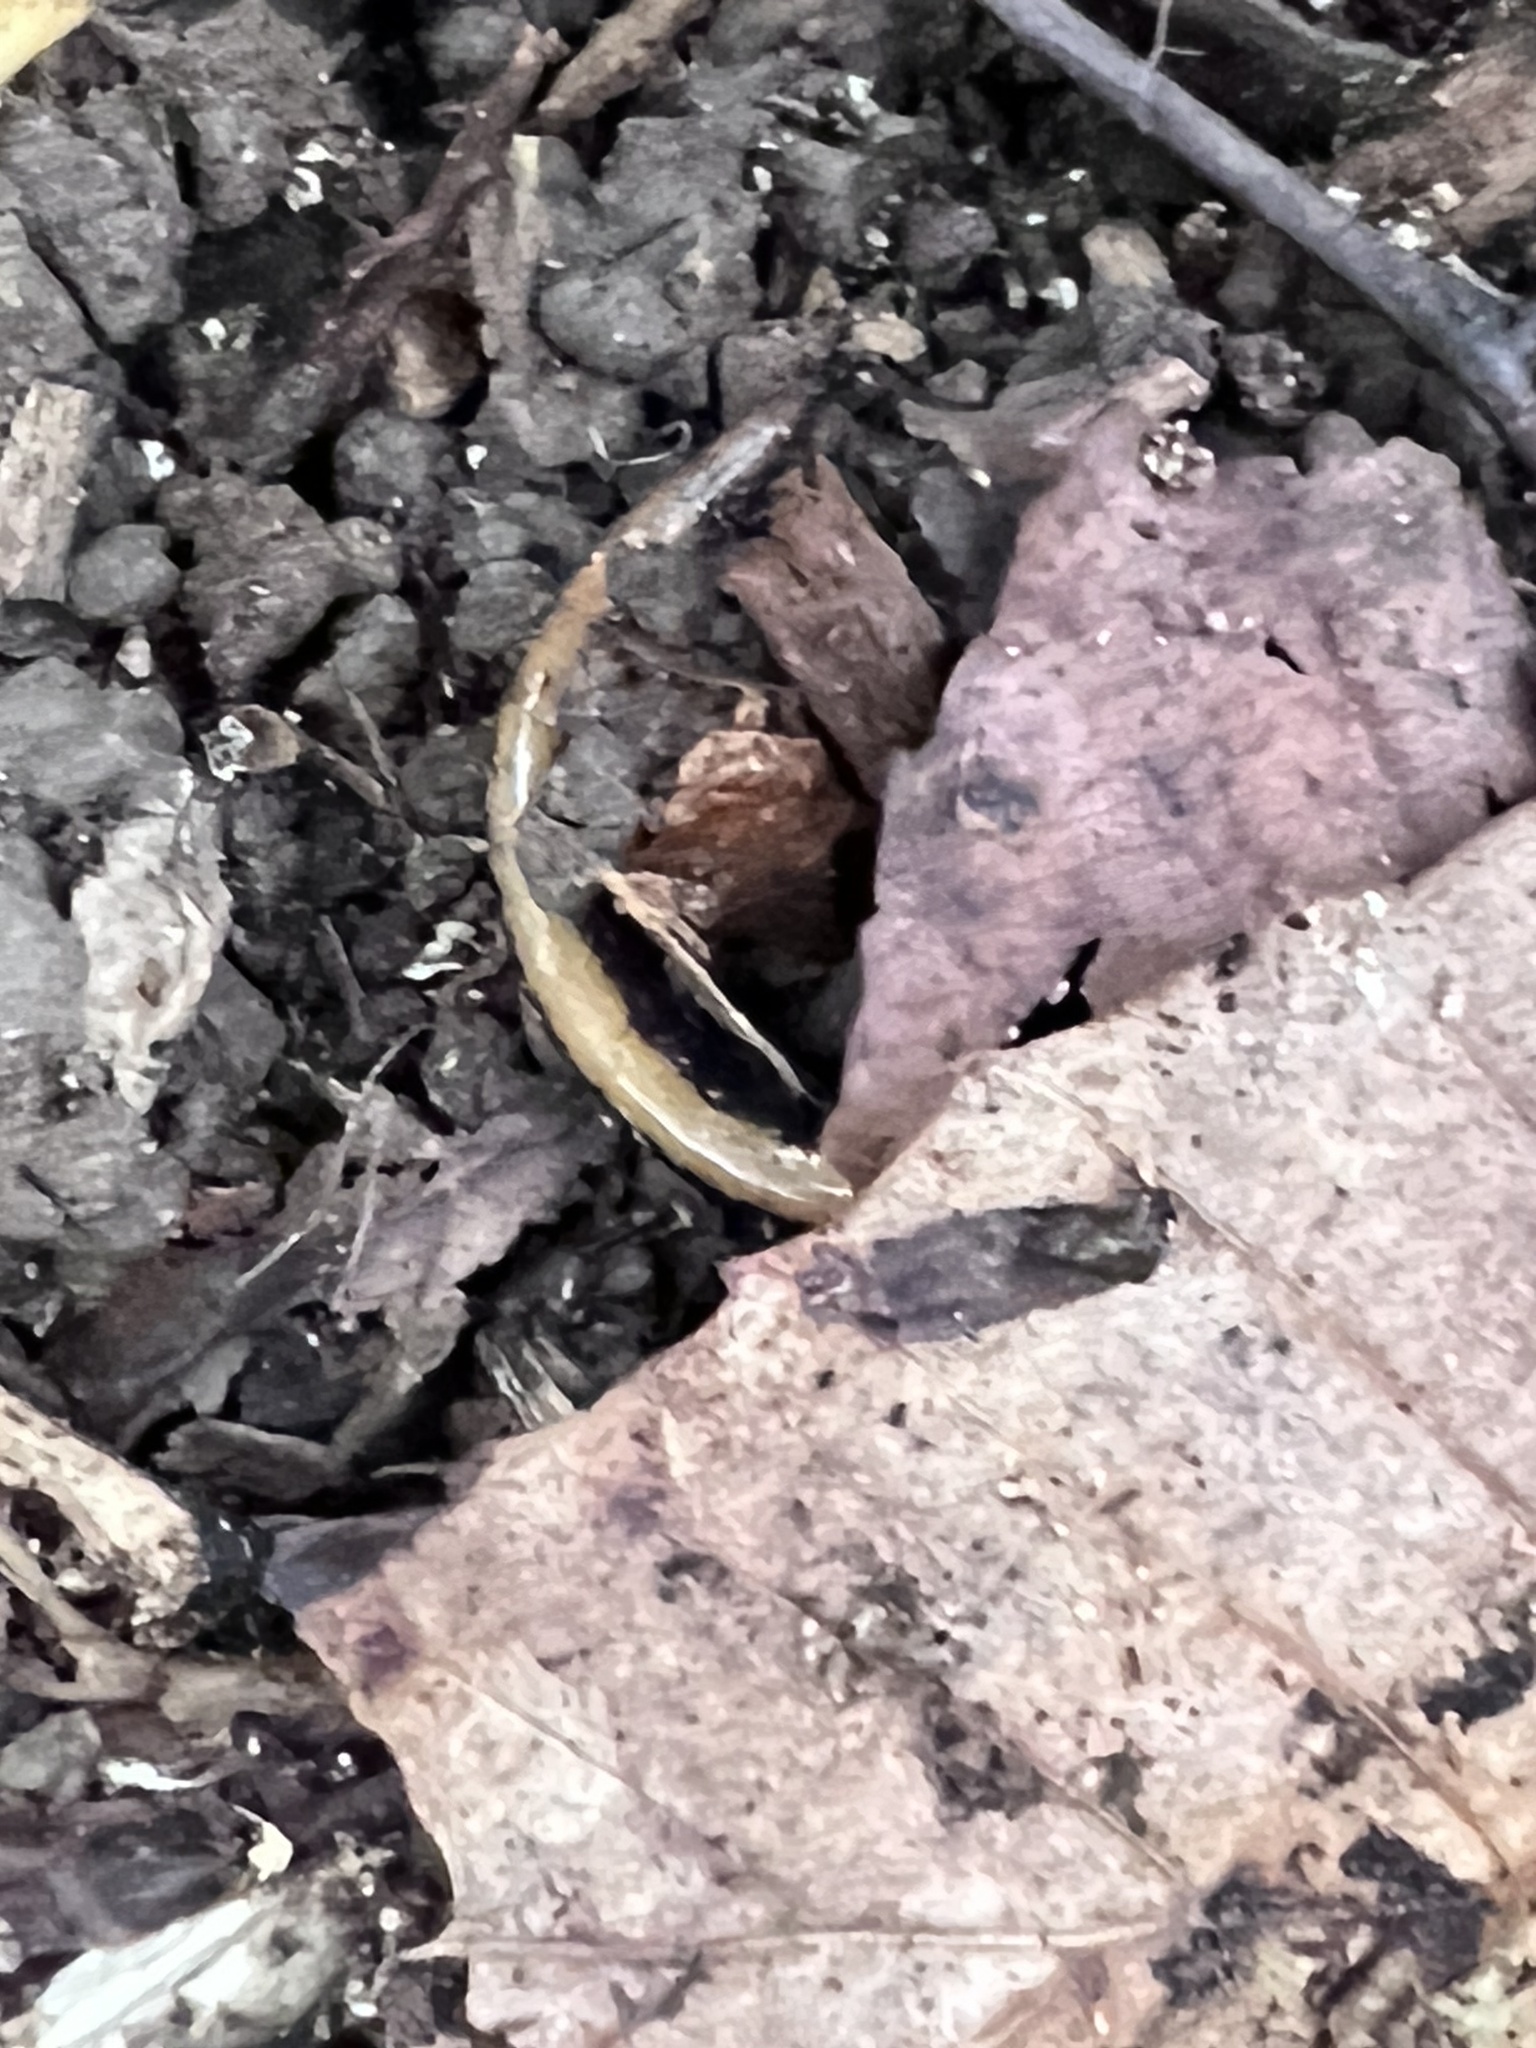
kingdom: Animalia
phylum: Chordata
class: Amphibia
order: Caudata
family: Plethodontidae
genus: Plethodon
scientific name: Plethodon cinereus
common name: Redback salamander
